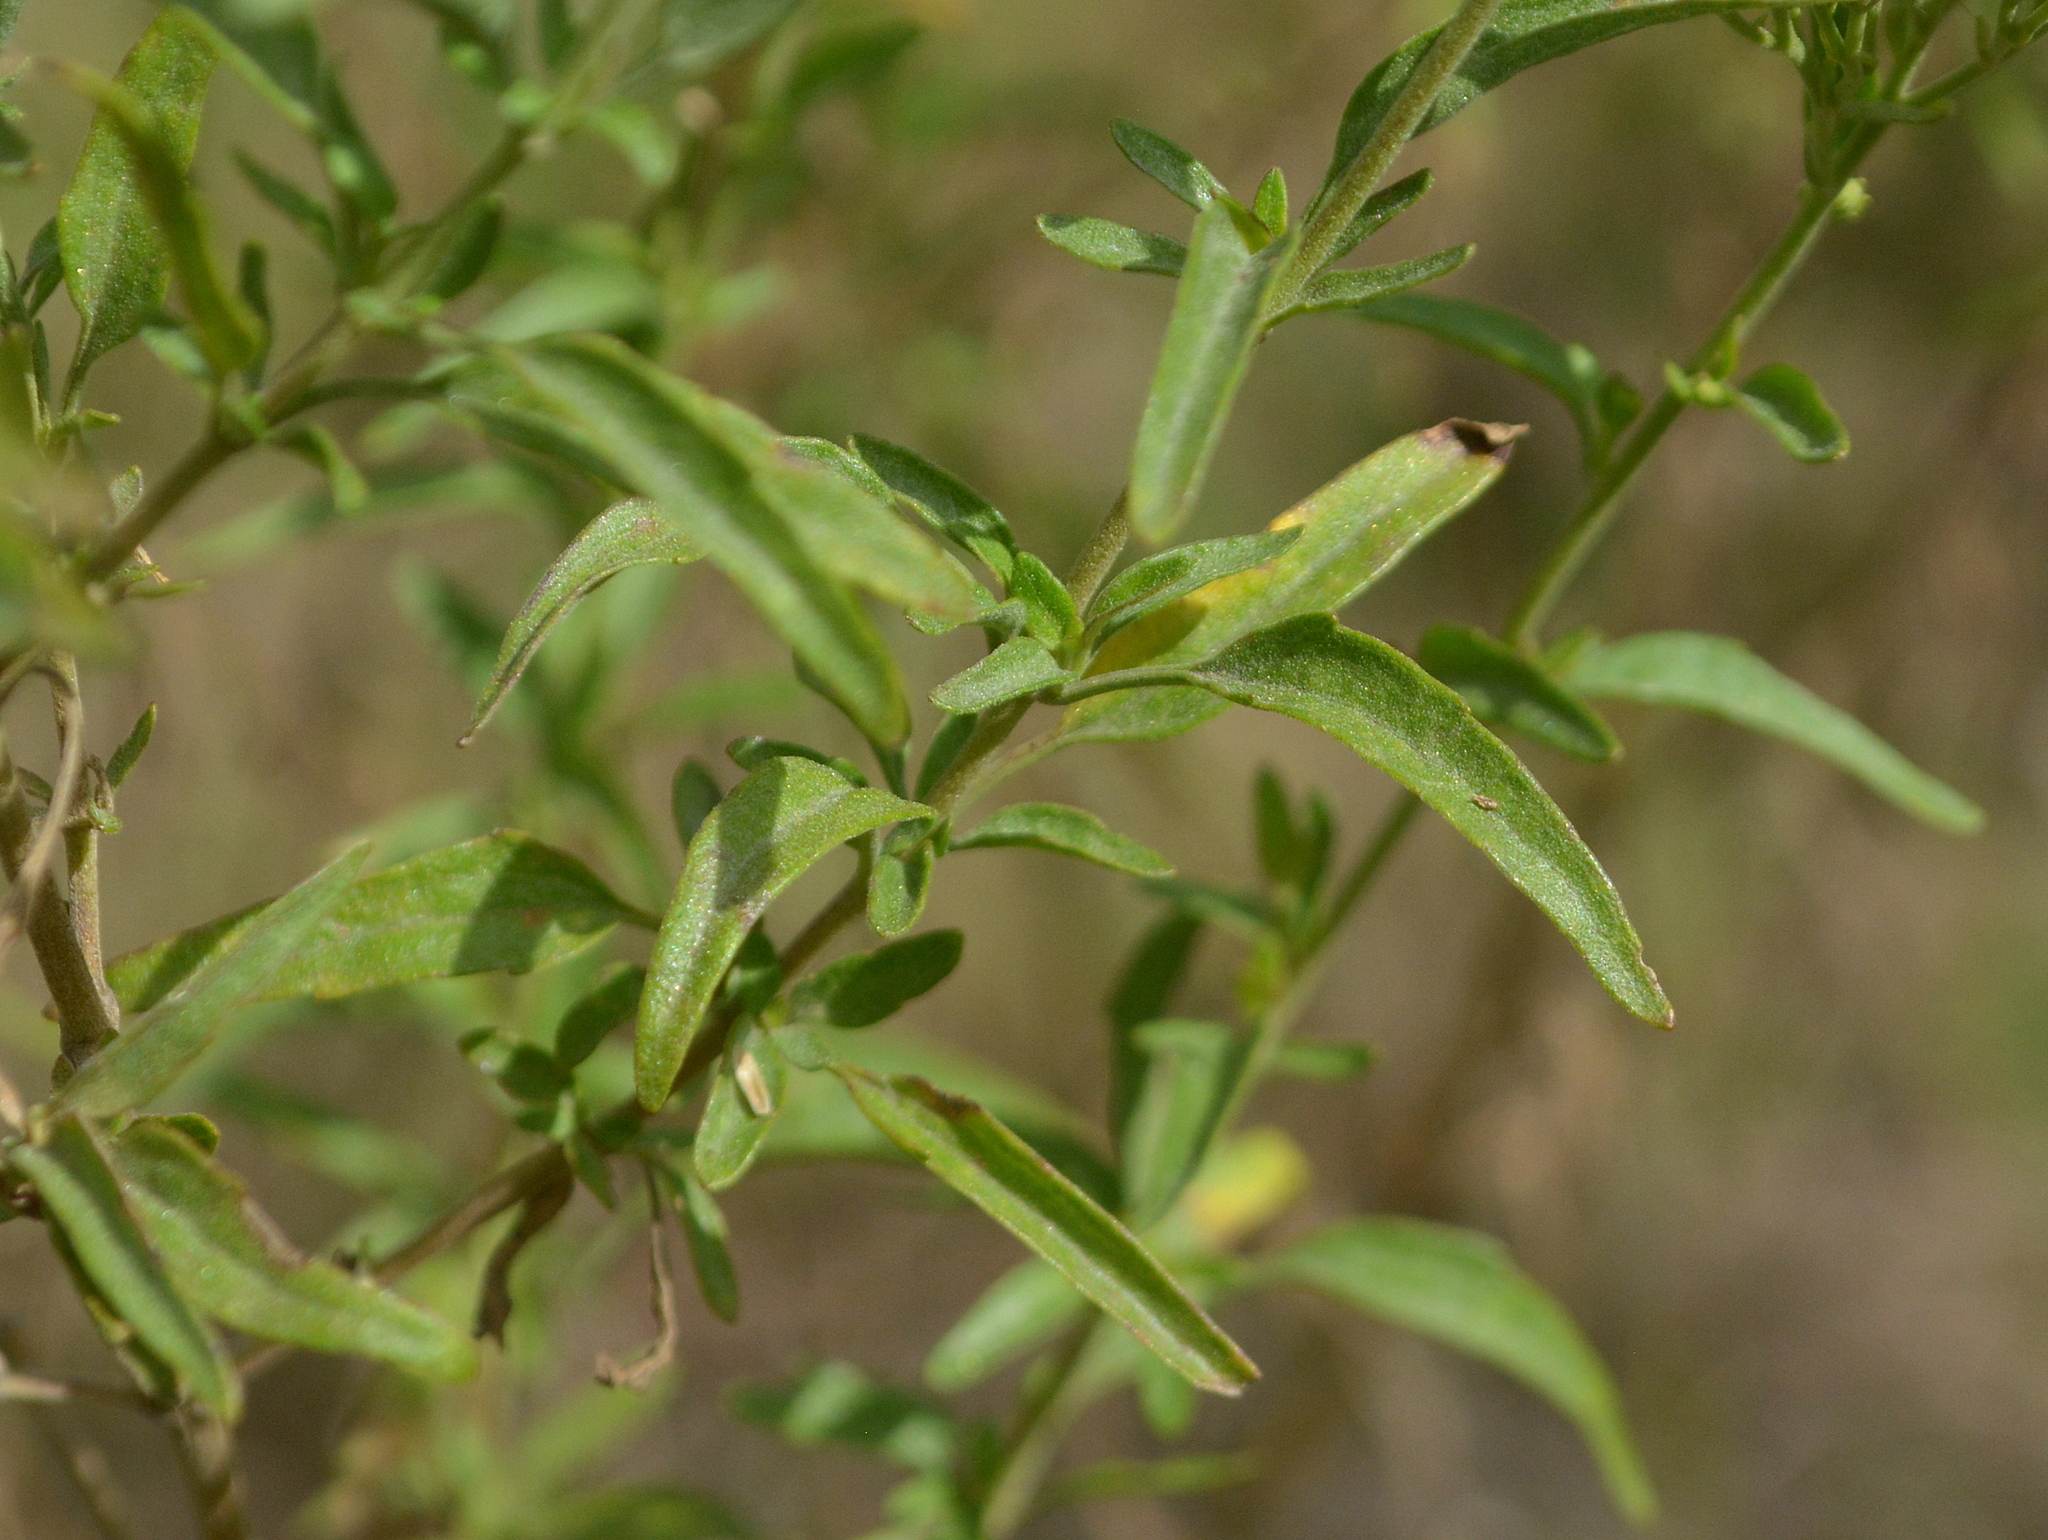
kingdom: Plantae
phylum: Tracheophyta
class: Magnoliopsida
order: Asterales
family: Asteraceae
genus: Hatschbachiella
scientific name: Hatschbachiella tweedieana
